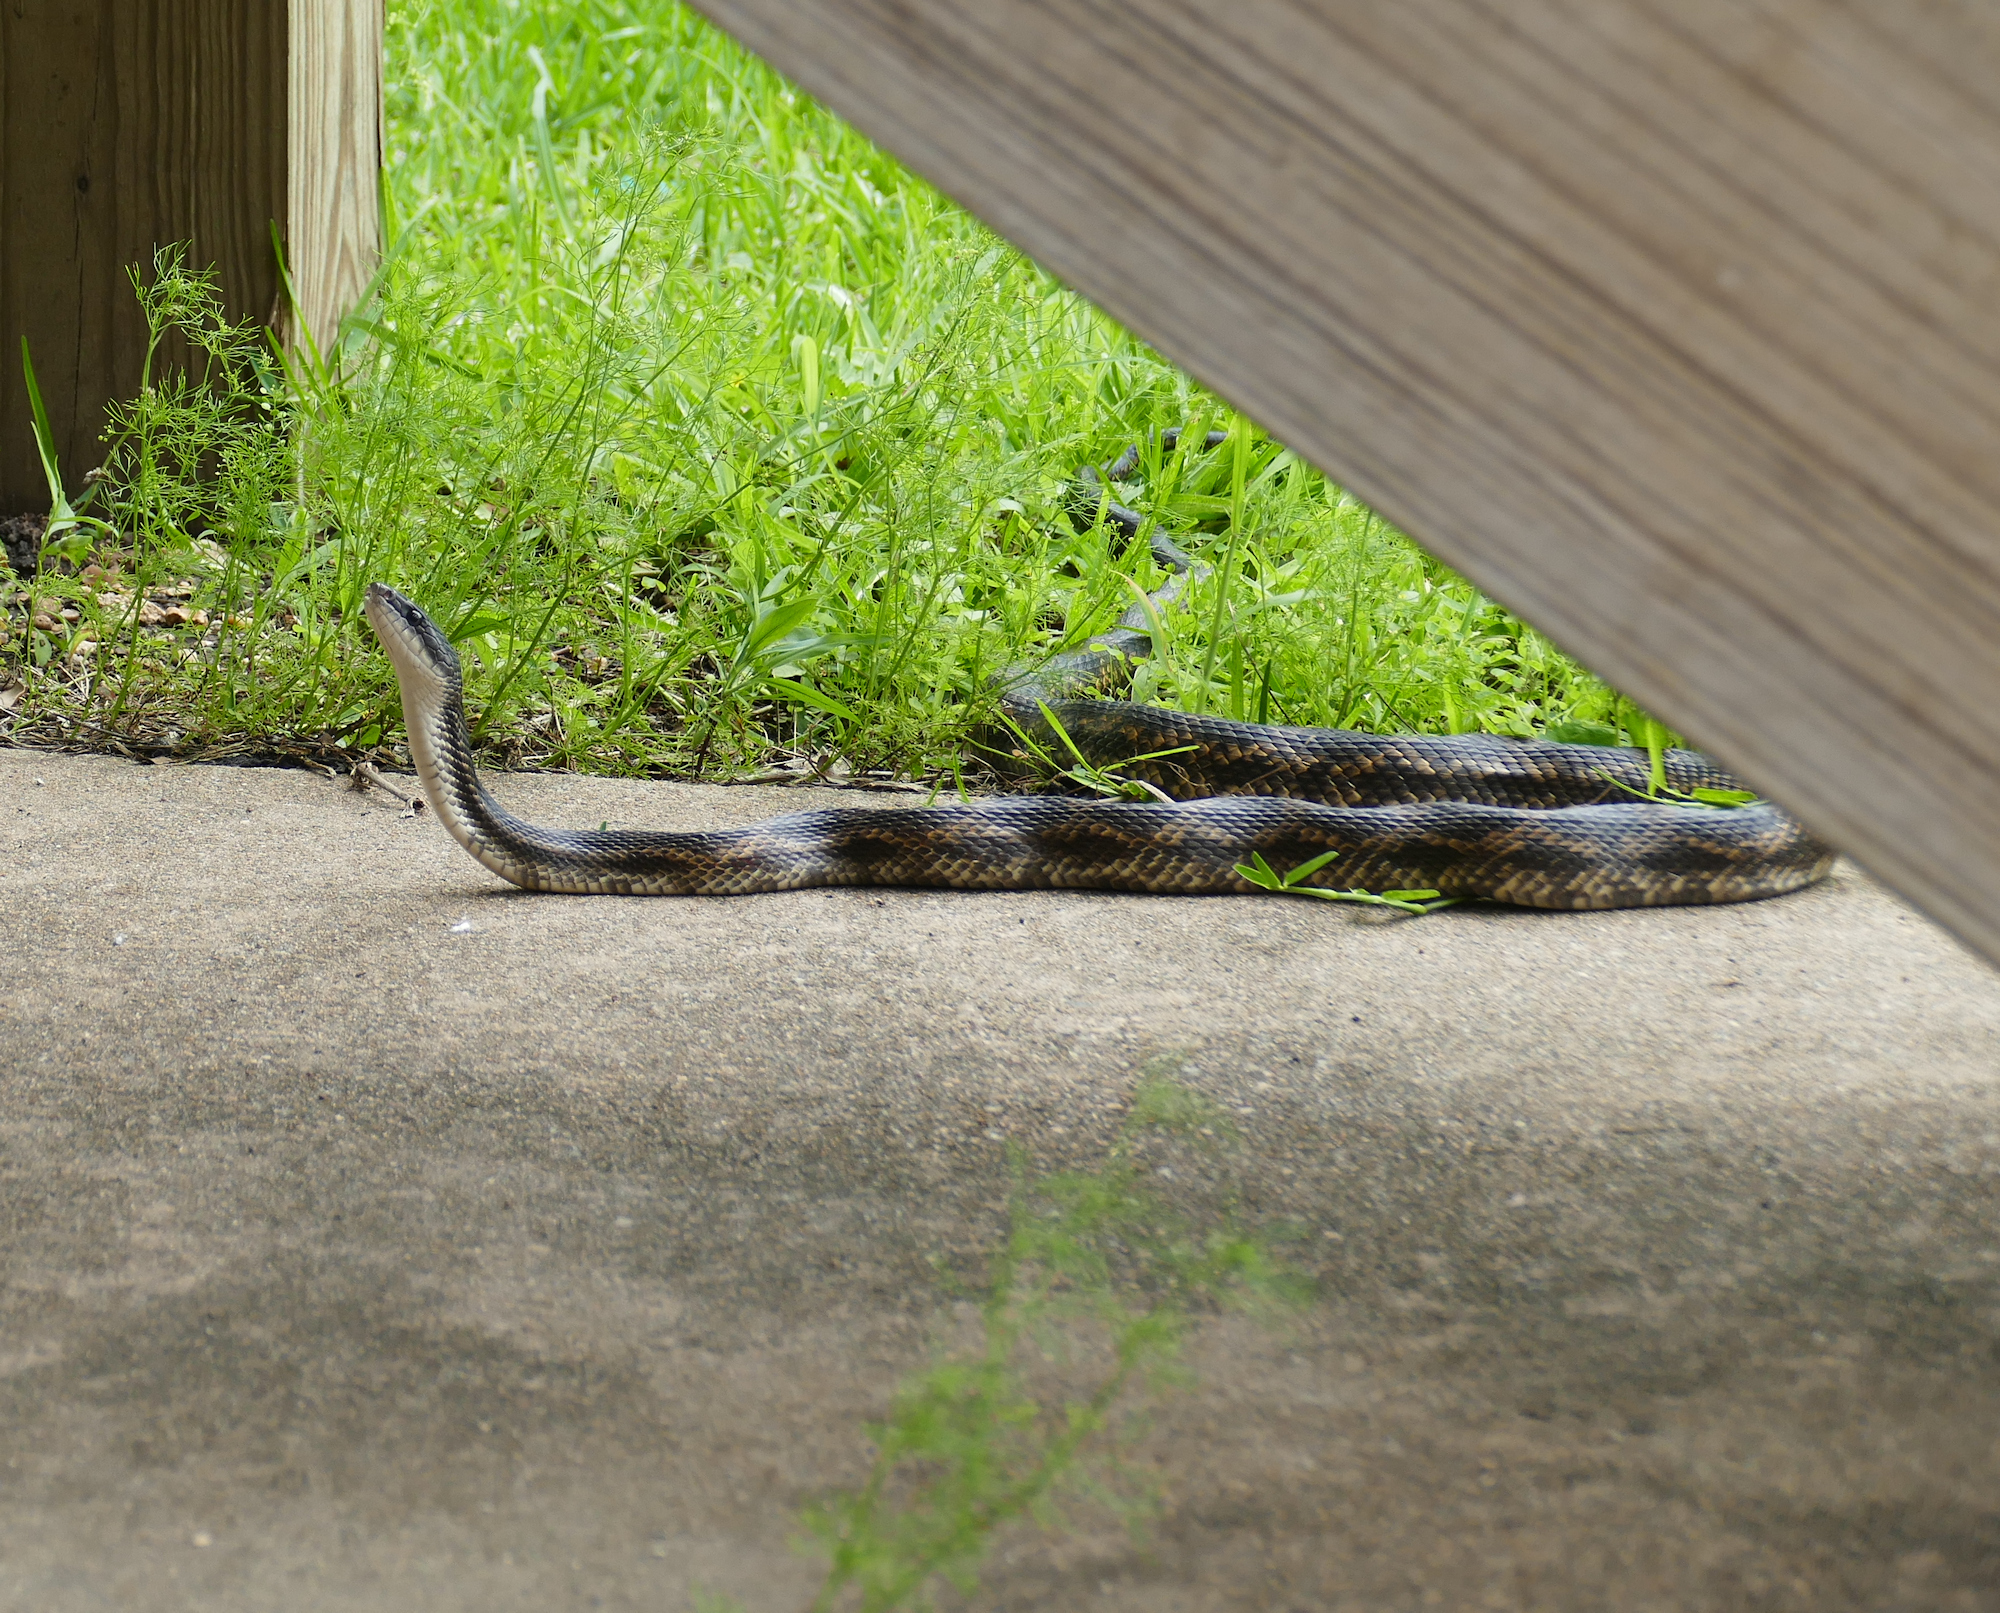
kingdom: Animalia
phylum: Chordata
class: Squamata
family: Colubridae
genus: Pantherophis
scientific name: Pantherophis obsoletus
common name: Black rat snake
